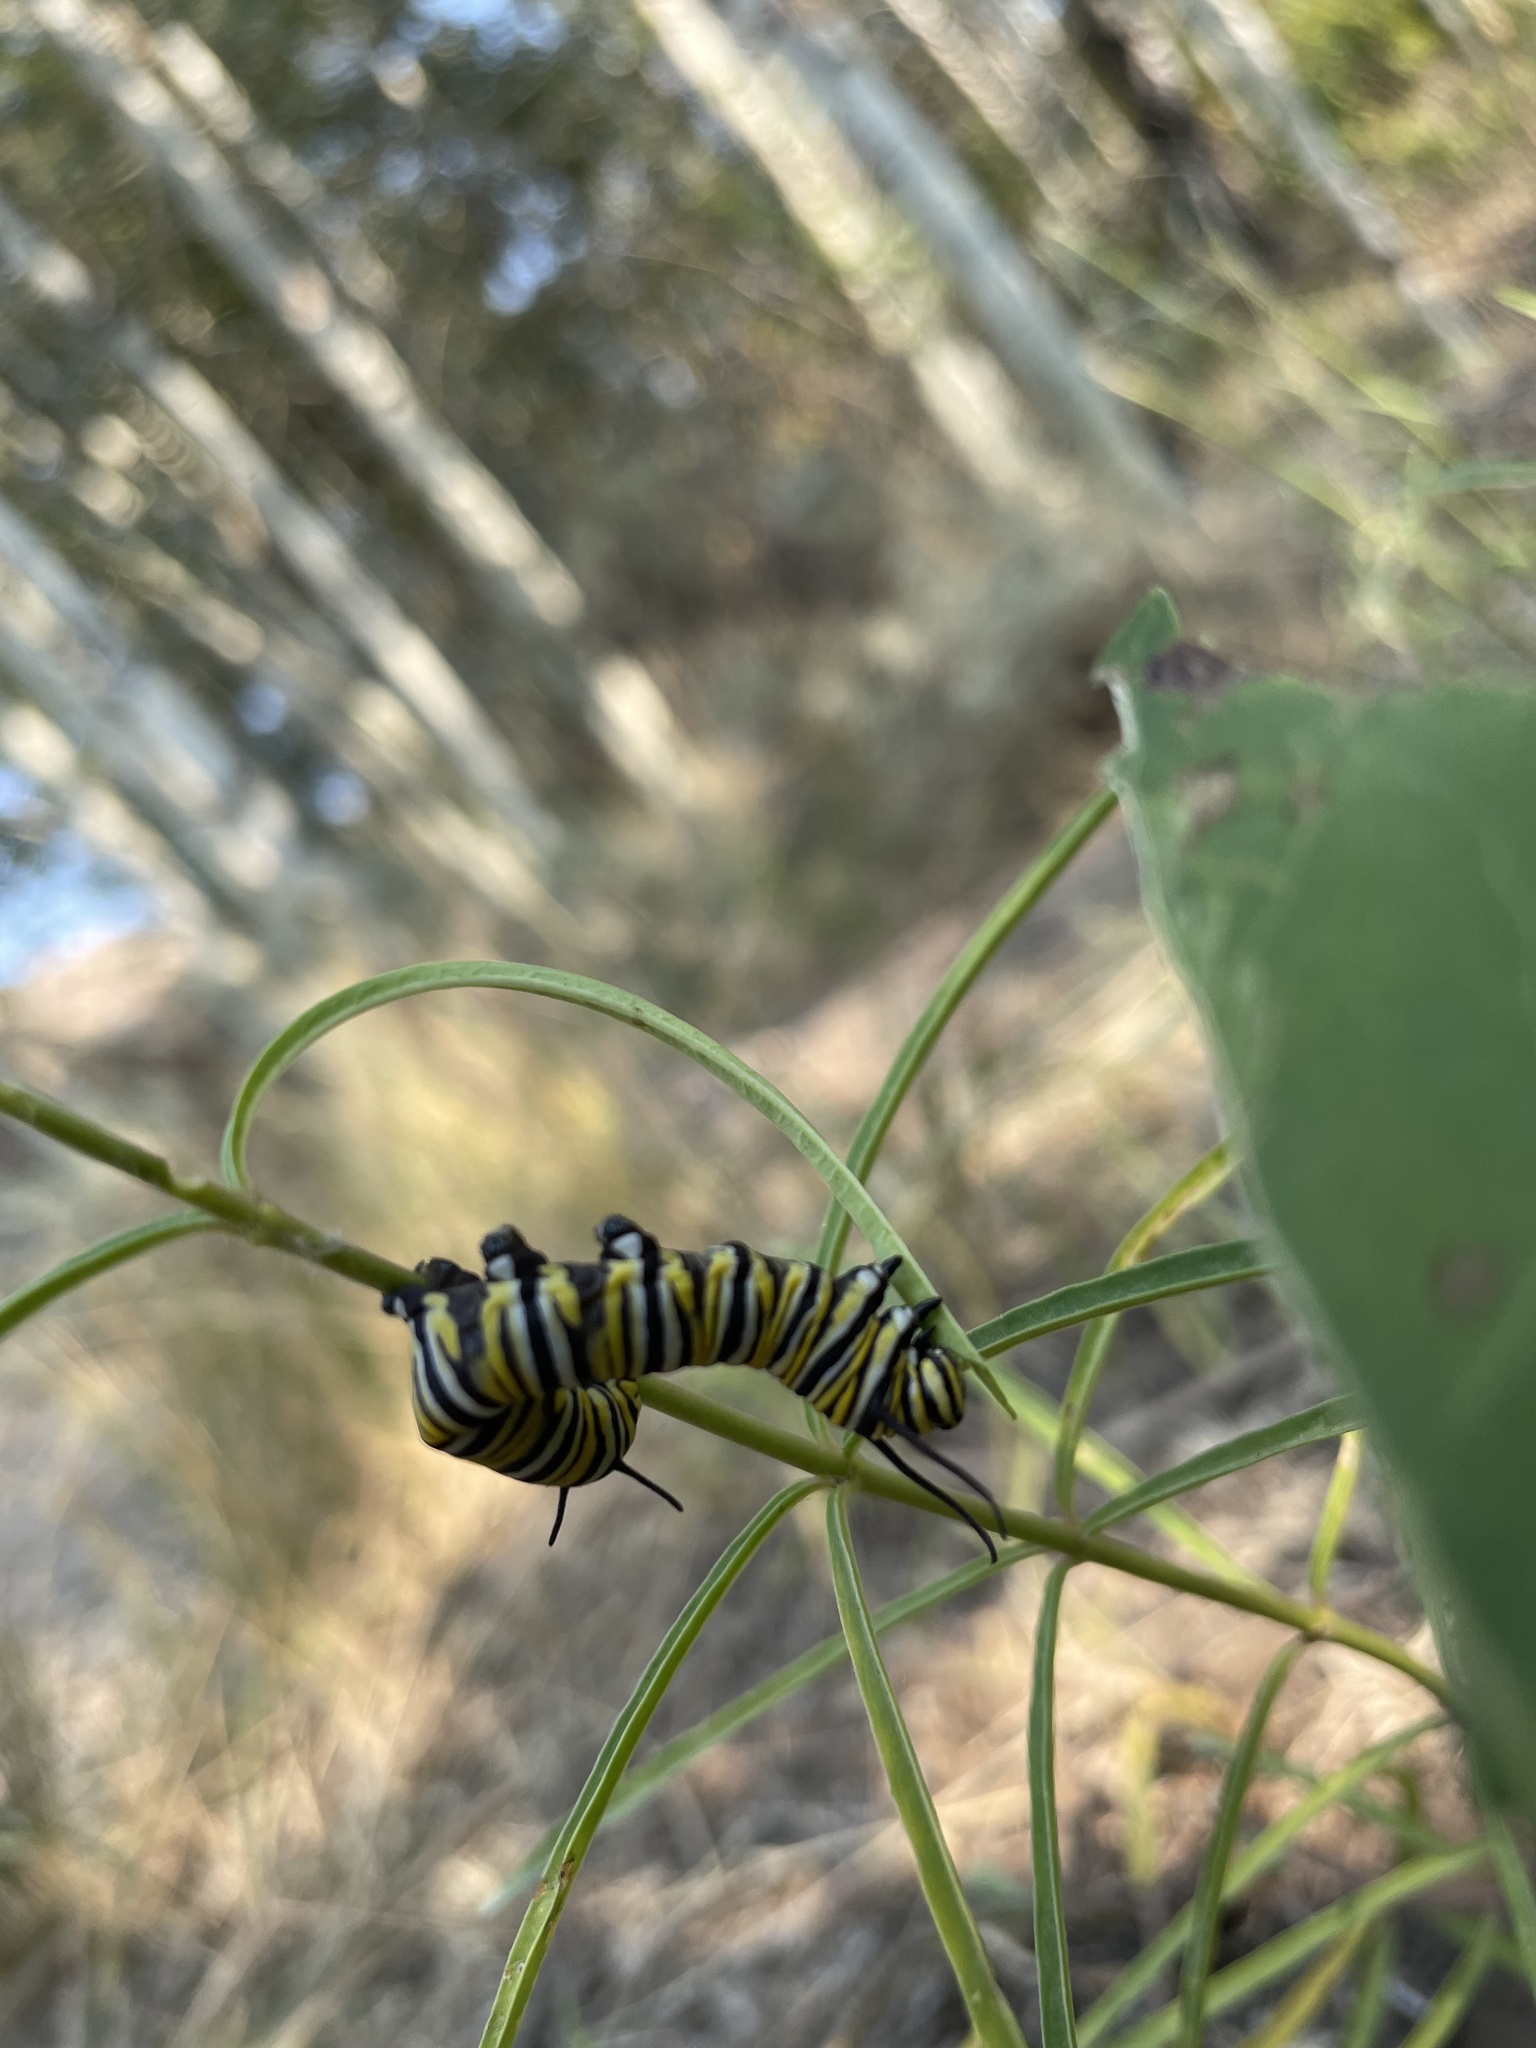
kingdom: Animalia
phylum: Arthropoda
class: Insecta
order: Lepidoptera
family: Nymphalidae
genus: Danaus
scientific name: Danaus plexippus
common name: Monarch
